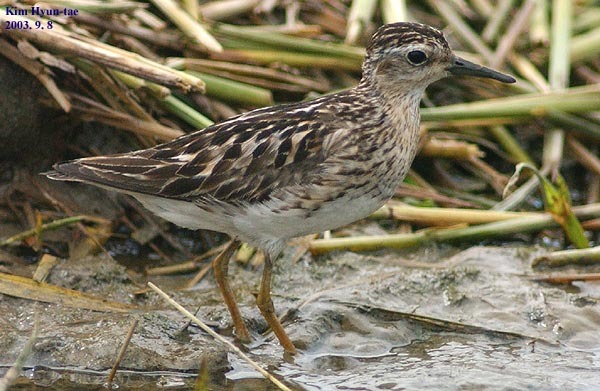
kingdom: Animalia
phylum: Chordata
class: Aves
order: Charadriiformes
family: Scolopacidae
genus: Calidris
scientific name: Calidris subminuta
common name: Long-toed stint
